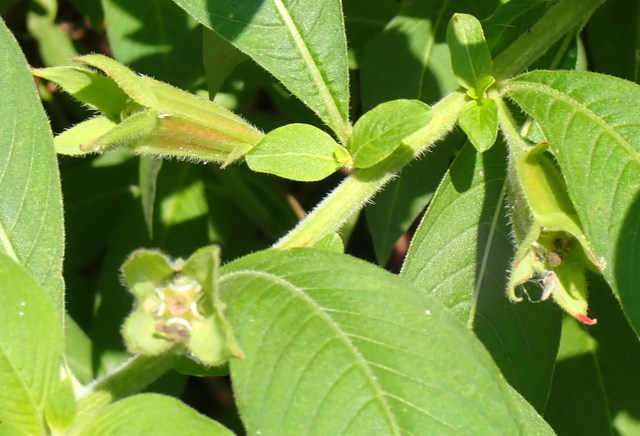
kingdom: Plantae
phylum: Tracheophyta
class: Magnoliopsida
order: Myrtales
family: Onagraceae
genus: Ludwigia
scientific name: Ludwigia peruviana
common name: Peruvian primrose-willow
